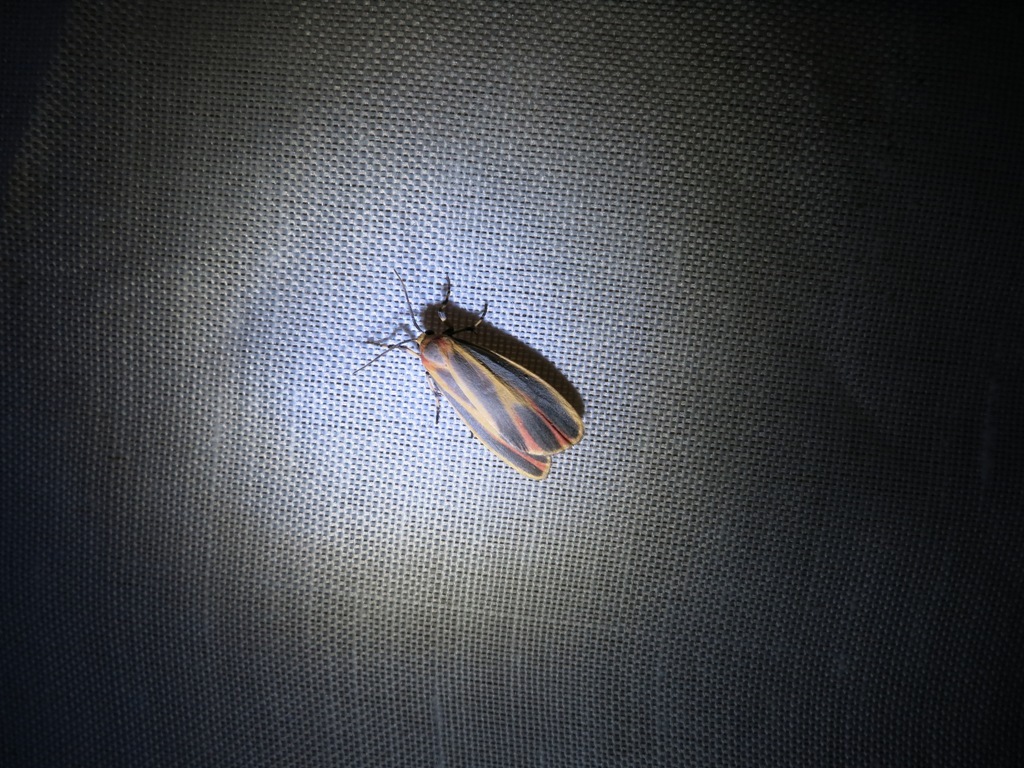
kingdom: Animalia
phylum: Arthropoda
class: Insecta
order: Lepidoptera
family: Erebidae
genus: Hypoprepia
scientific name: Hypoprepia fucosa
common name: Painted lichen moth
